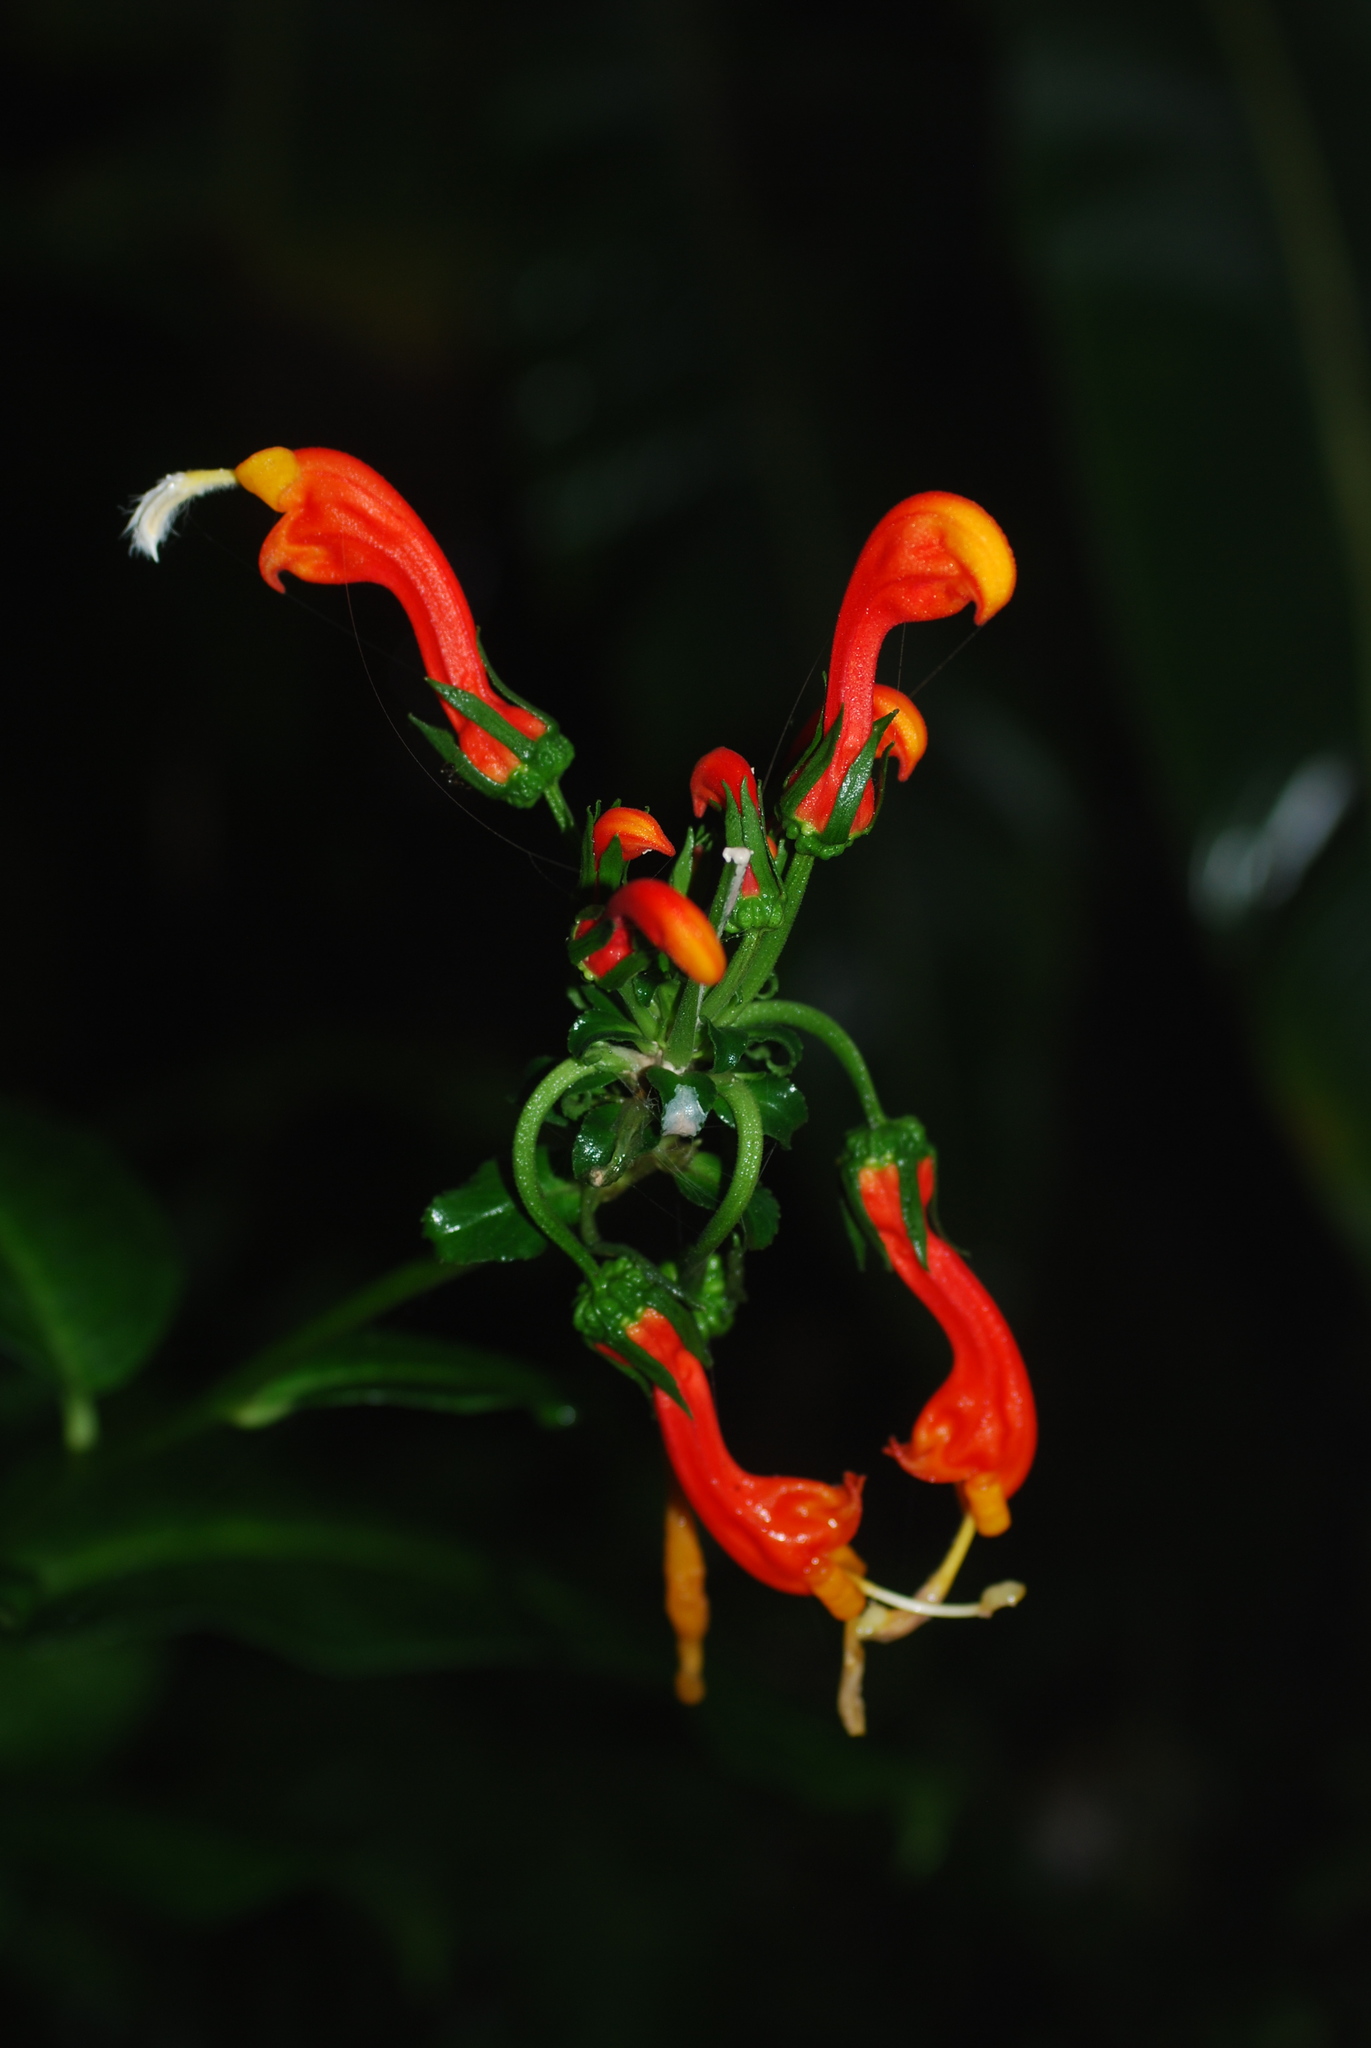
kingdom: Plantae
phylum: Tracheophyta
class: Magnoliopsida
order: Asterales
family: Campanulaceae
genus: Centropogon
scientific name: Centropogon granulosus
